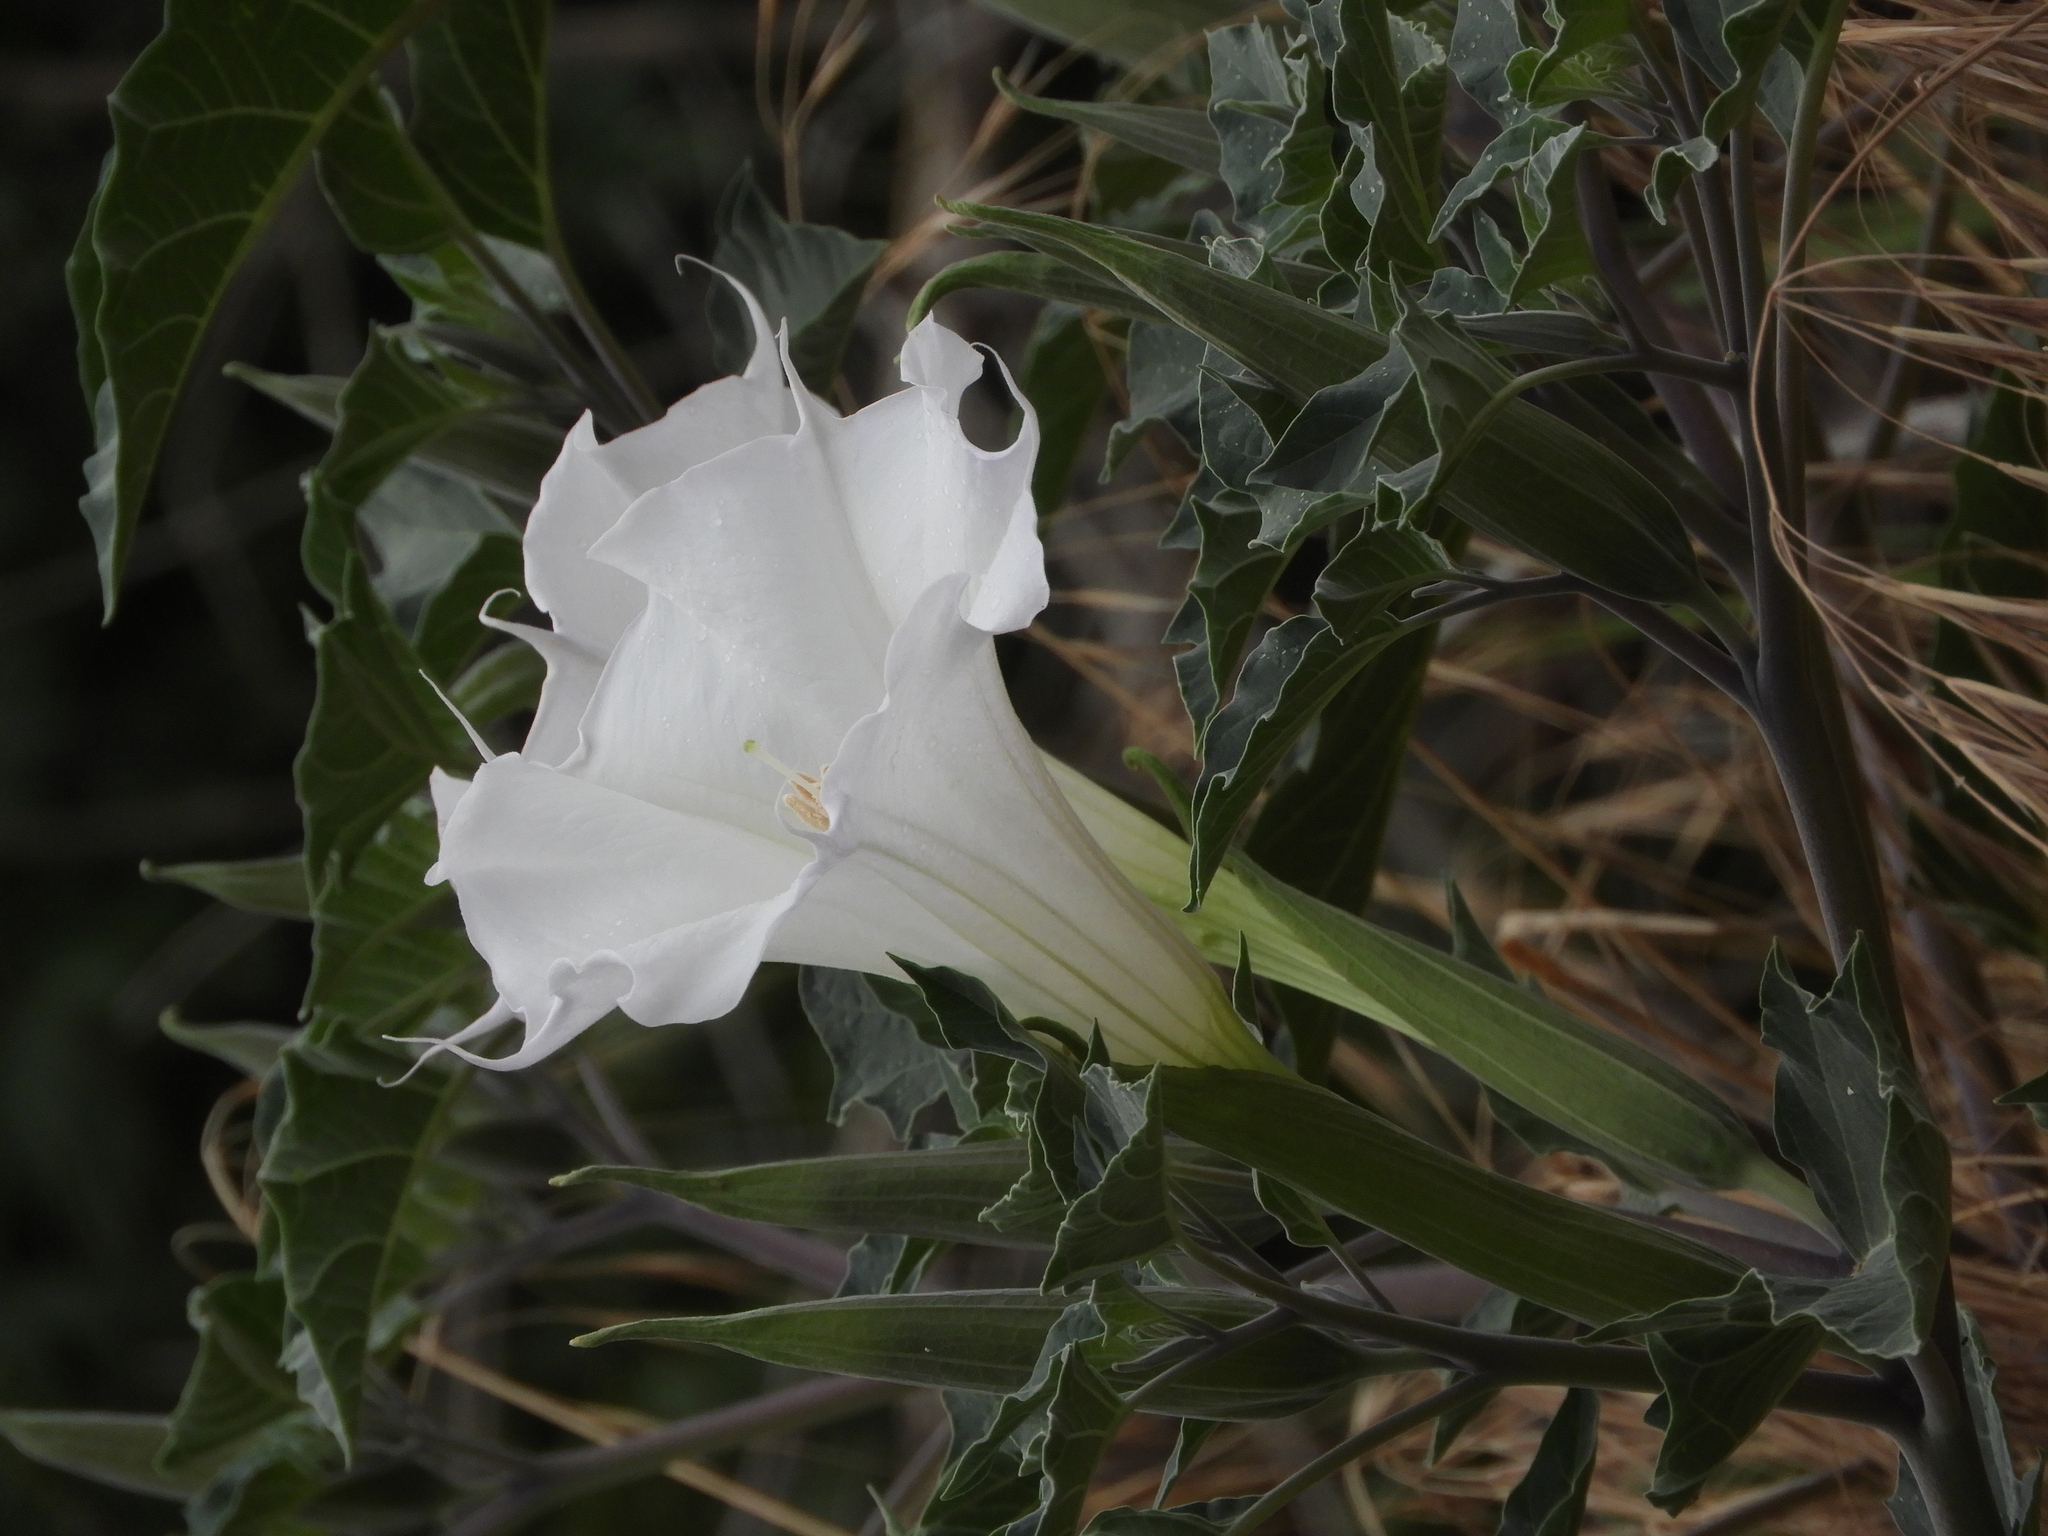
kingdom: Plantae
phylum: Tracheophyta
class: Magnoliopsida
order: Solanales
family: Solanaceae
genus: Datura
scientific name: Datura wrightii
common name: Sacred thorn-apple
